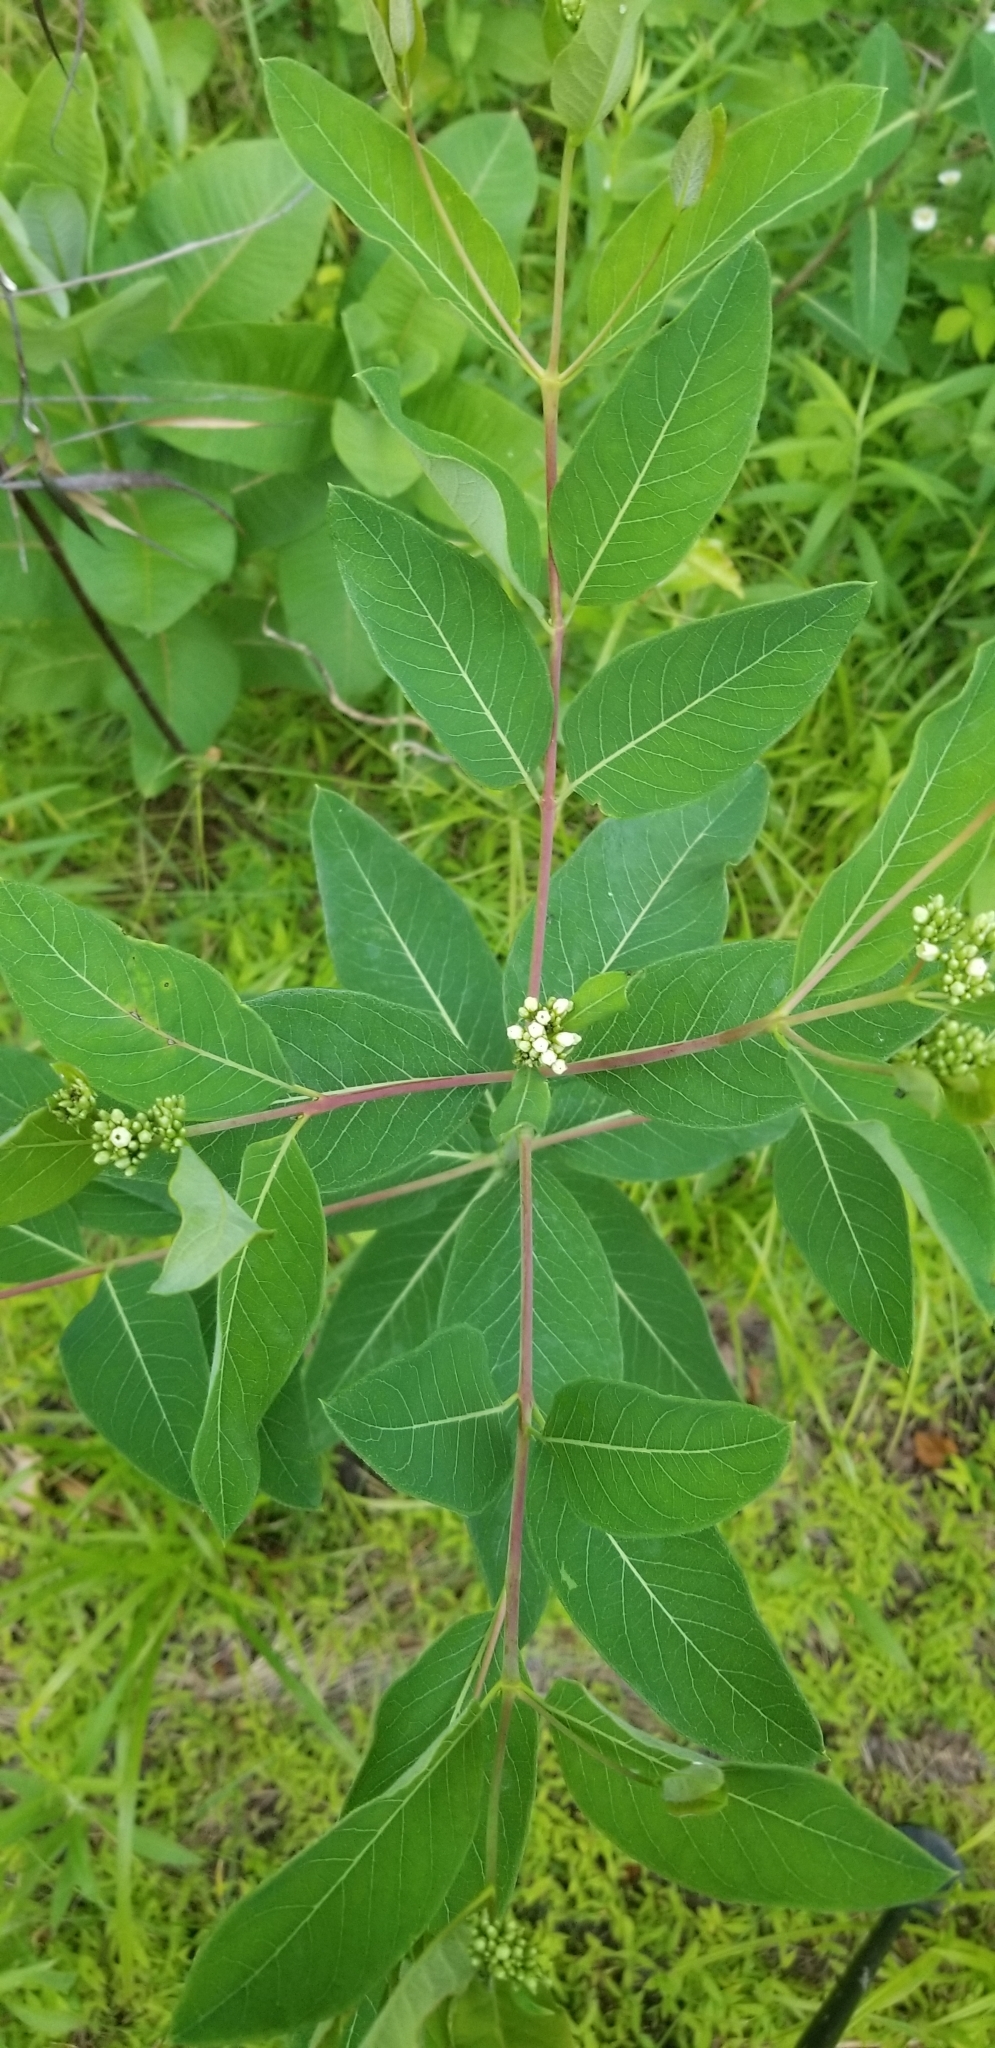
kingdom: Plantae
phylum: Tracheophyta
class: Magnoliopsida
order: Gentianales
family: Apocynaceae
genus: Apocynum
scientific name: Apocynum cannabinum
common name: Hemp dogbane
